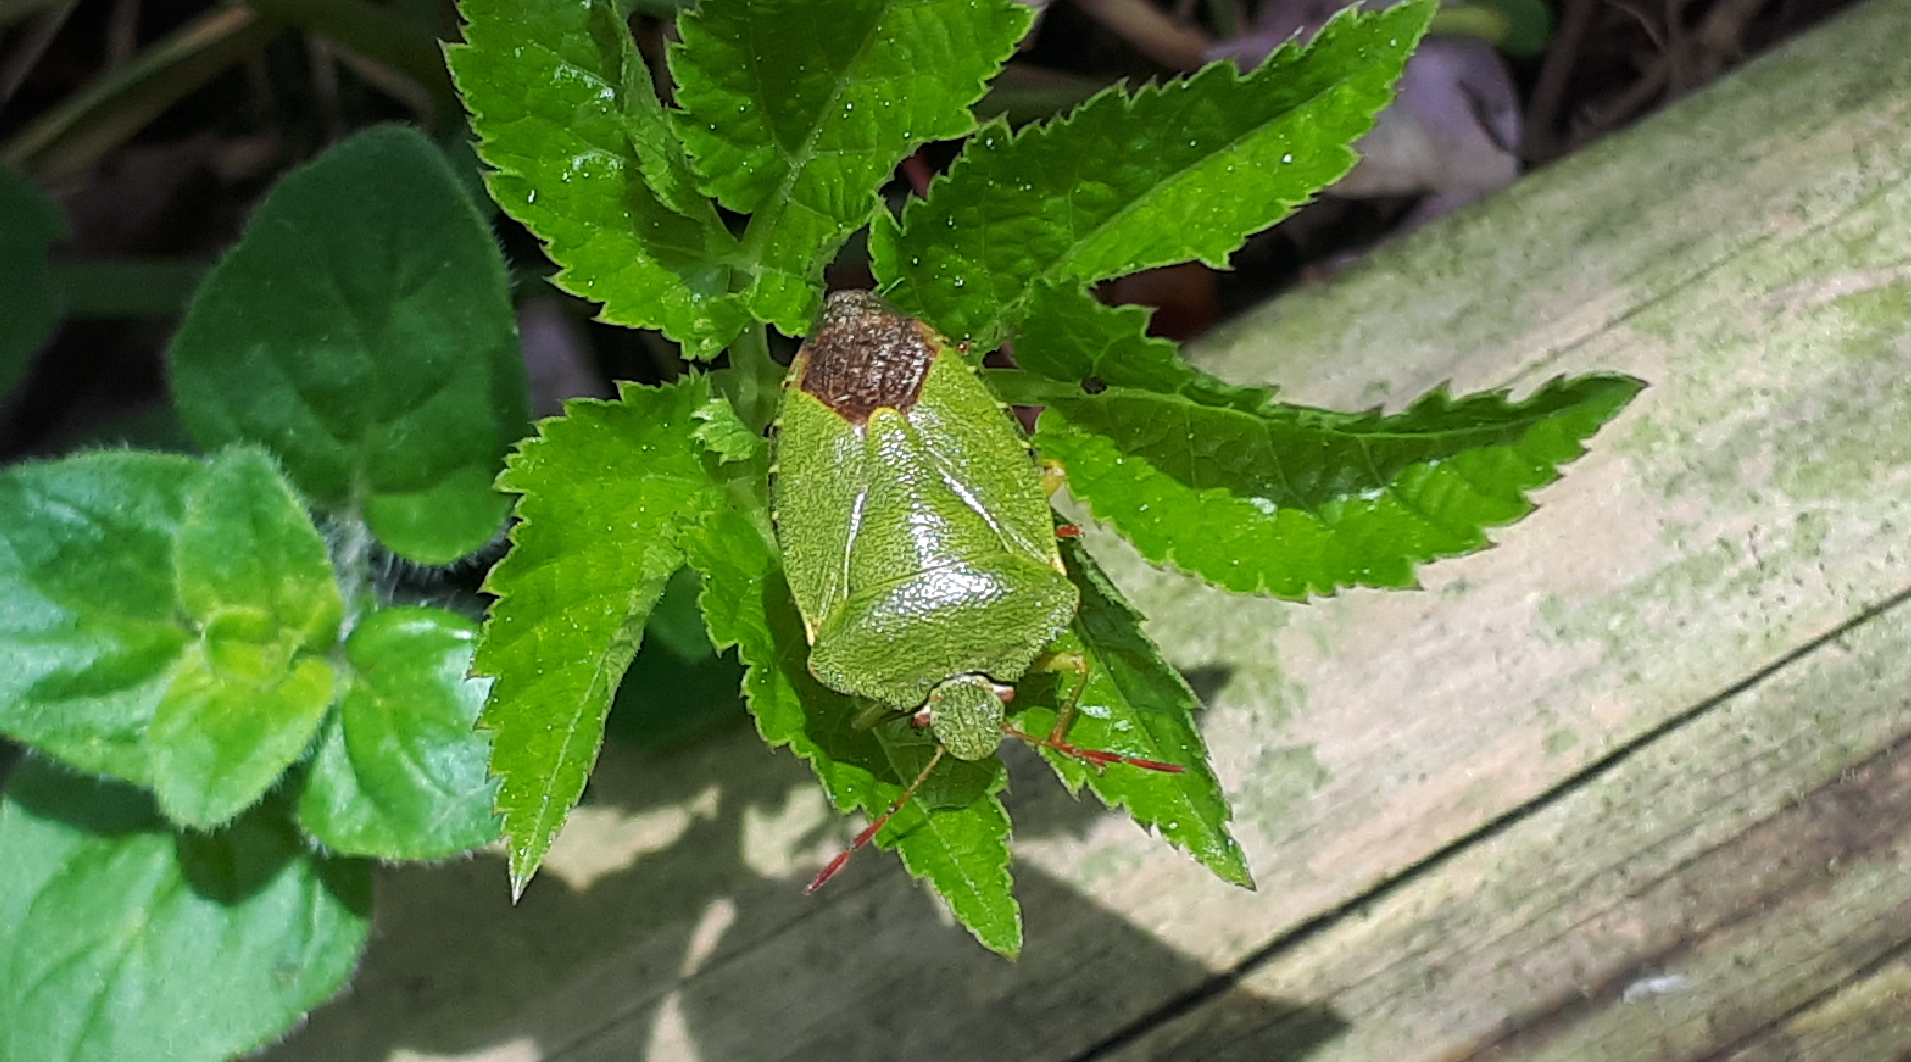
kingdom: Animalia
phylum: Arthropoda
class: Insecta
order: Hemiptera
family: Pentatomidae
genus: Palomena
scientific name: Palomena prasina
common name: Green shieldbug
